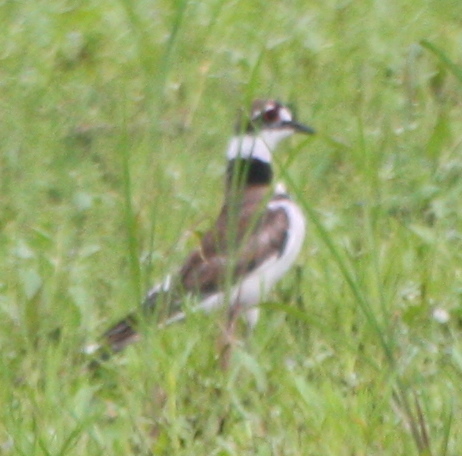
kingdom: Animalia
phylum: Chordata
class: Aves
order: Charadriiformes
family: Charadriidae
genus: Charadrius
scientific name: Charadrius vociferus
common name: Killdeer
